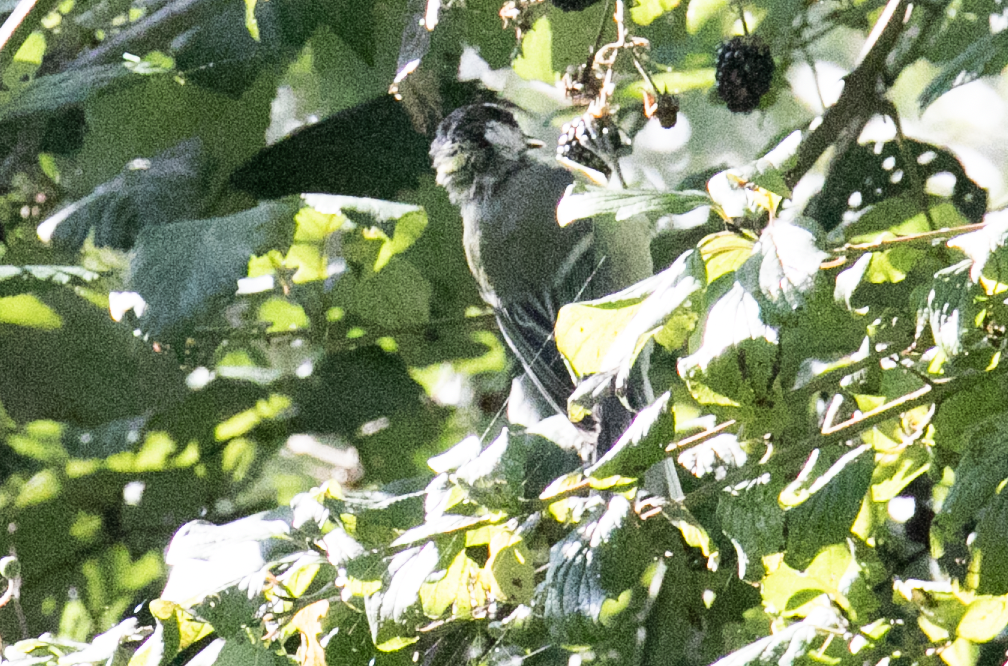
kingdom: Animalia
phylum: Chordata
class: Aves
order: Passeriformes
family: Paridae
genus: Parus
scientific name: Parus major
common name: Great tit
